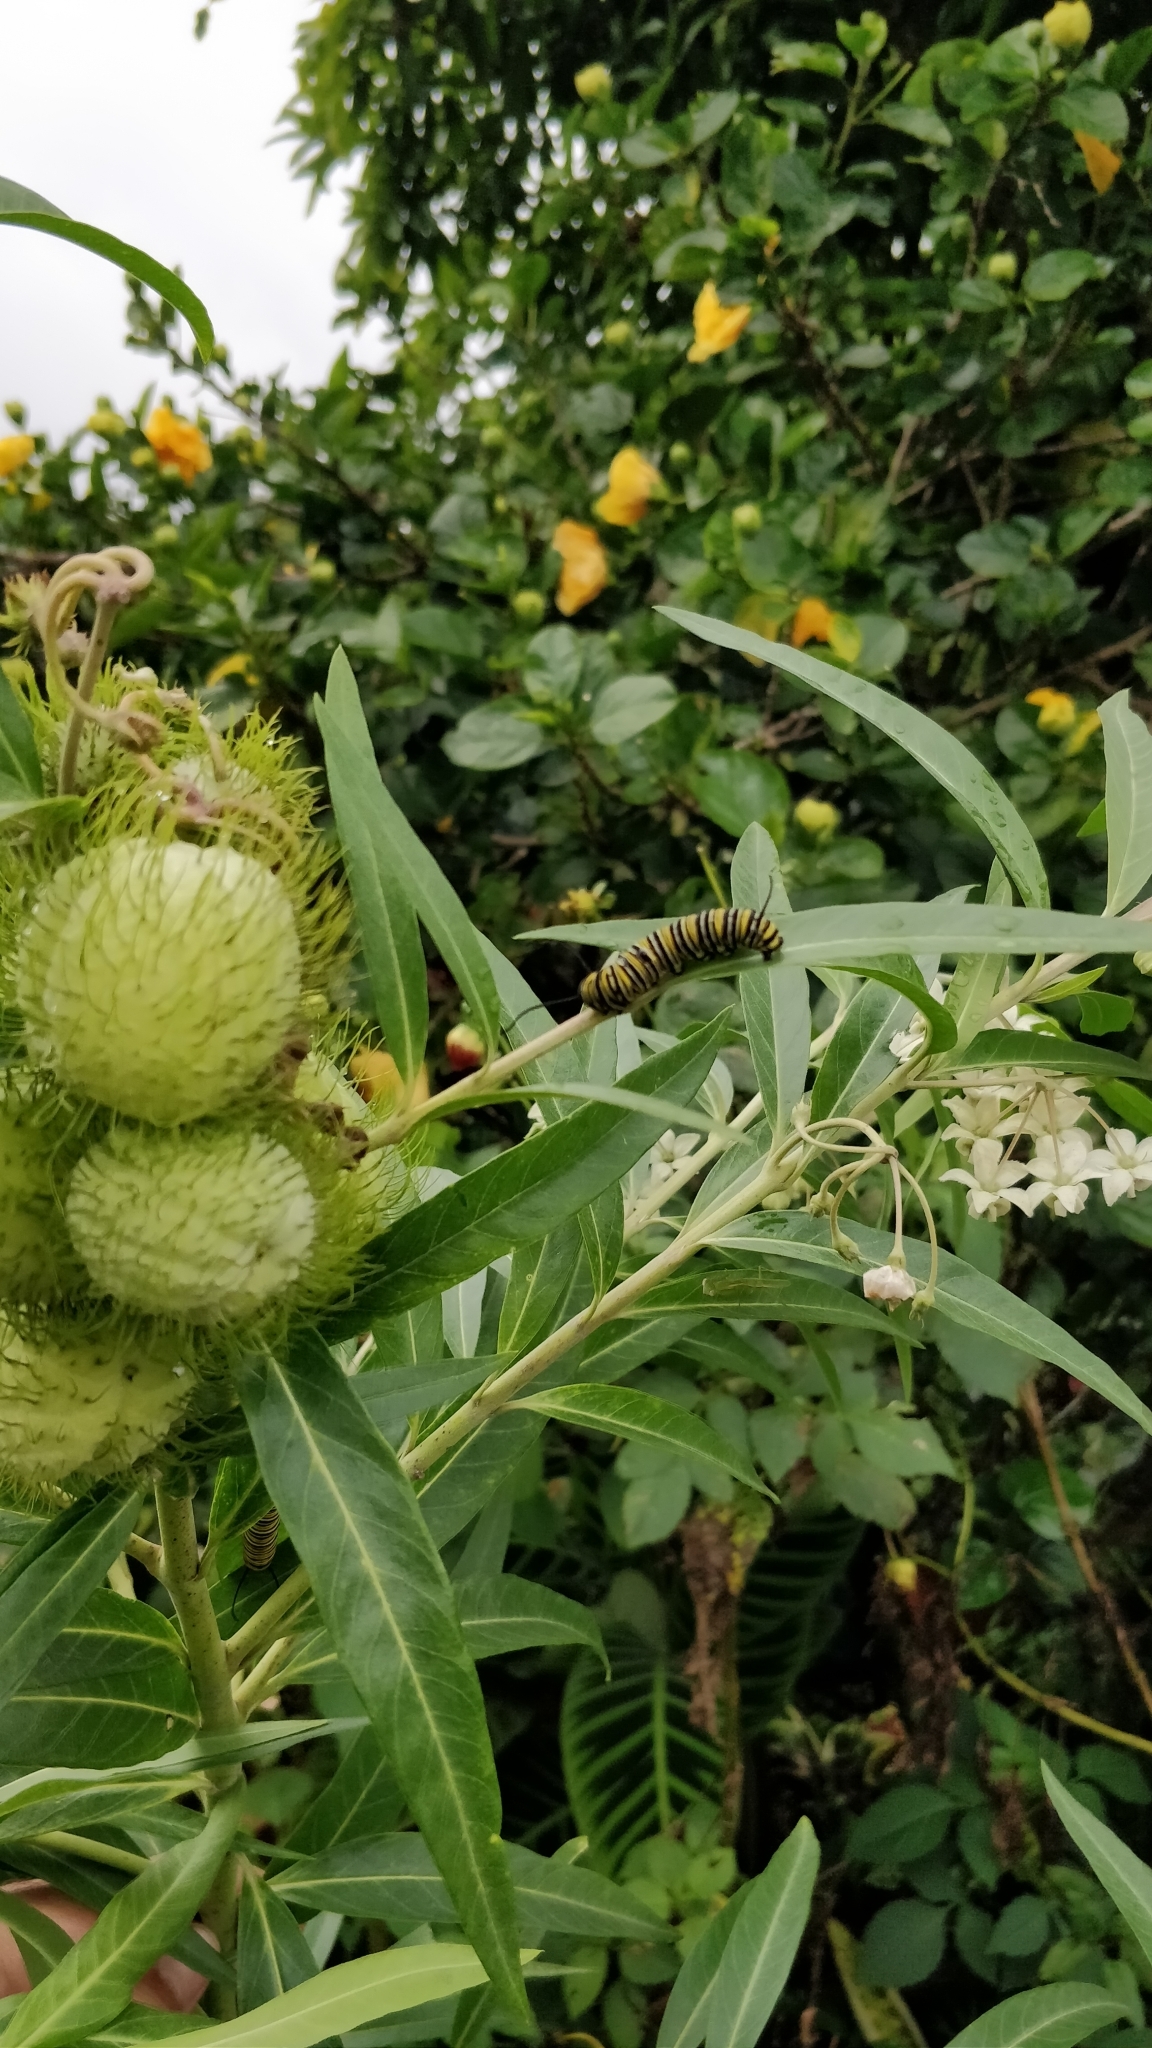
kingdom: Animalia
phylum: Arthropoda
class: Insecta
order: Lepidoptera
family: Nymphalidae
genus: Danaus
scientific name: Danaus plexippus
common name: Monarch
